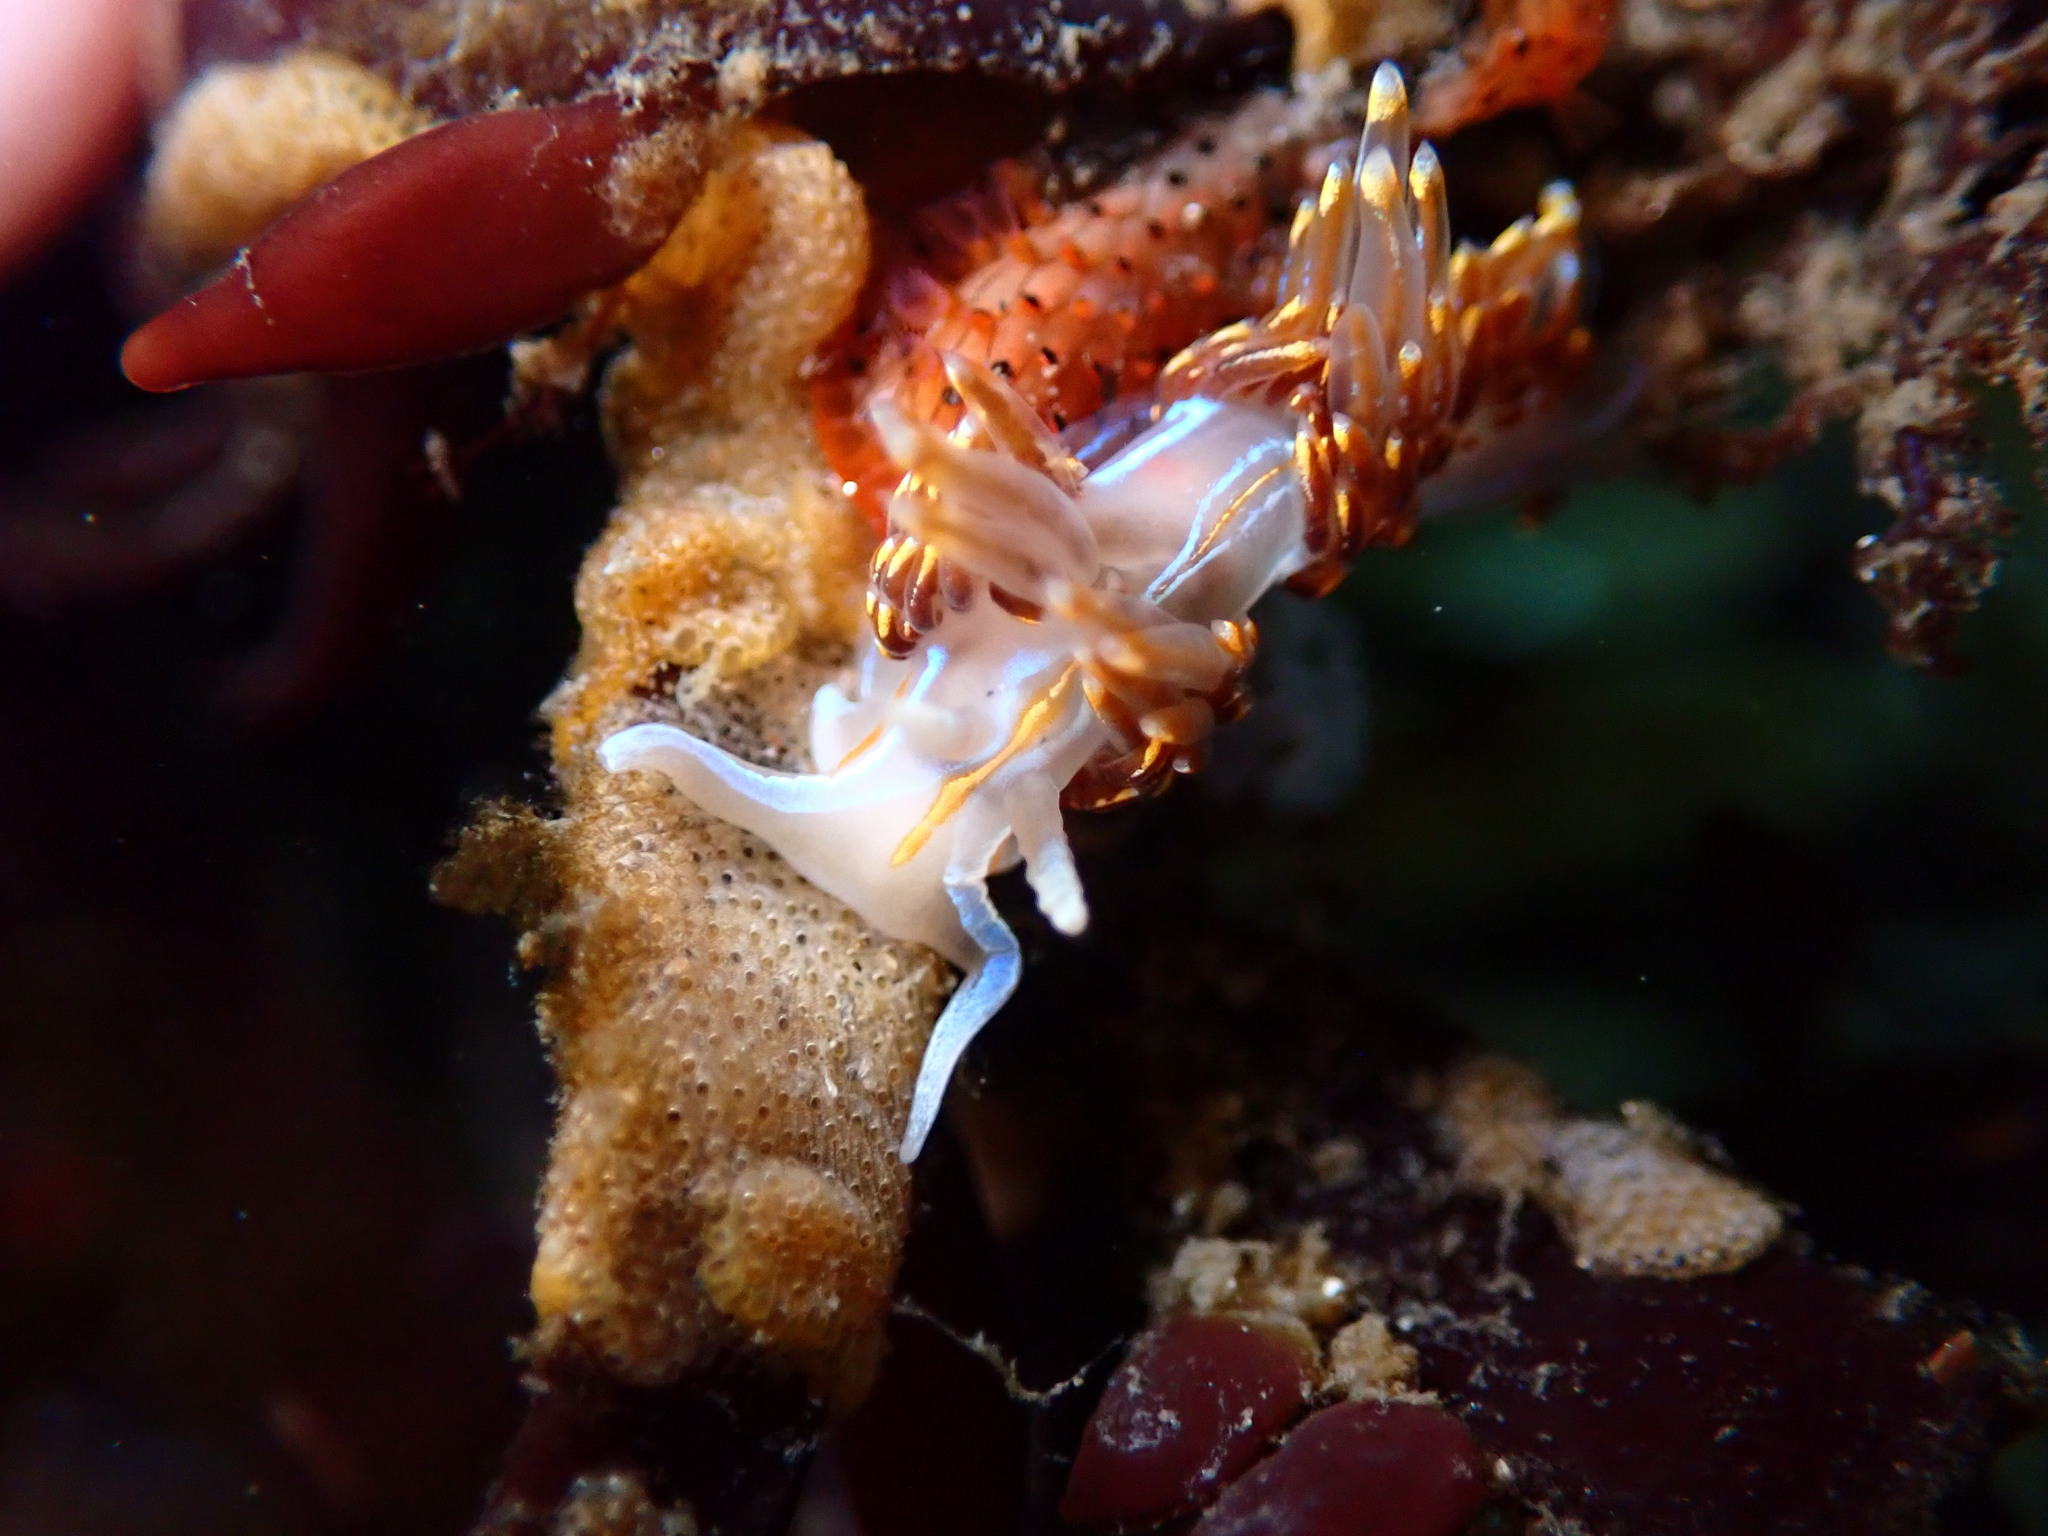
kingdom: Animalia
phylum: Mollusca
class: Gastropoda
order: Nudibranchia
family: Myrrhinidae
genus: Hermissenda
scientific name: Hermissenda opalescens
